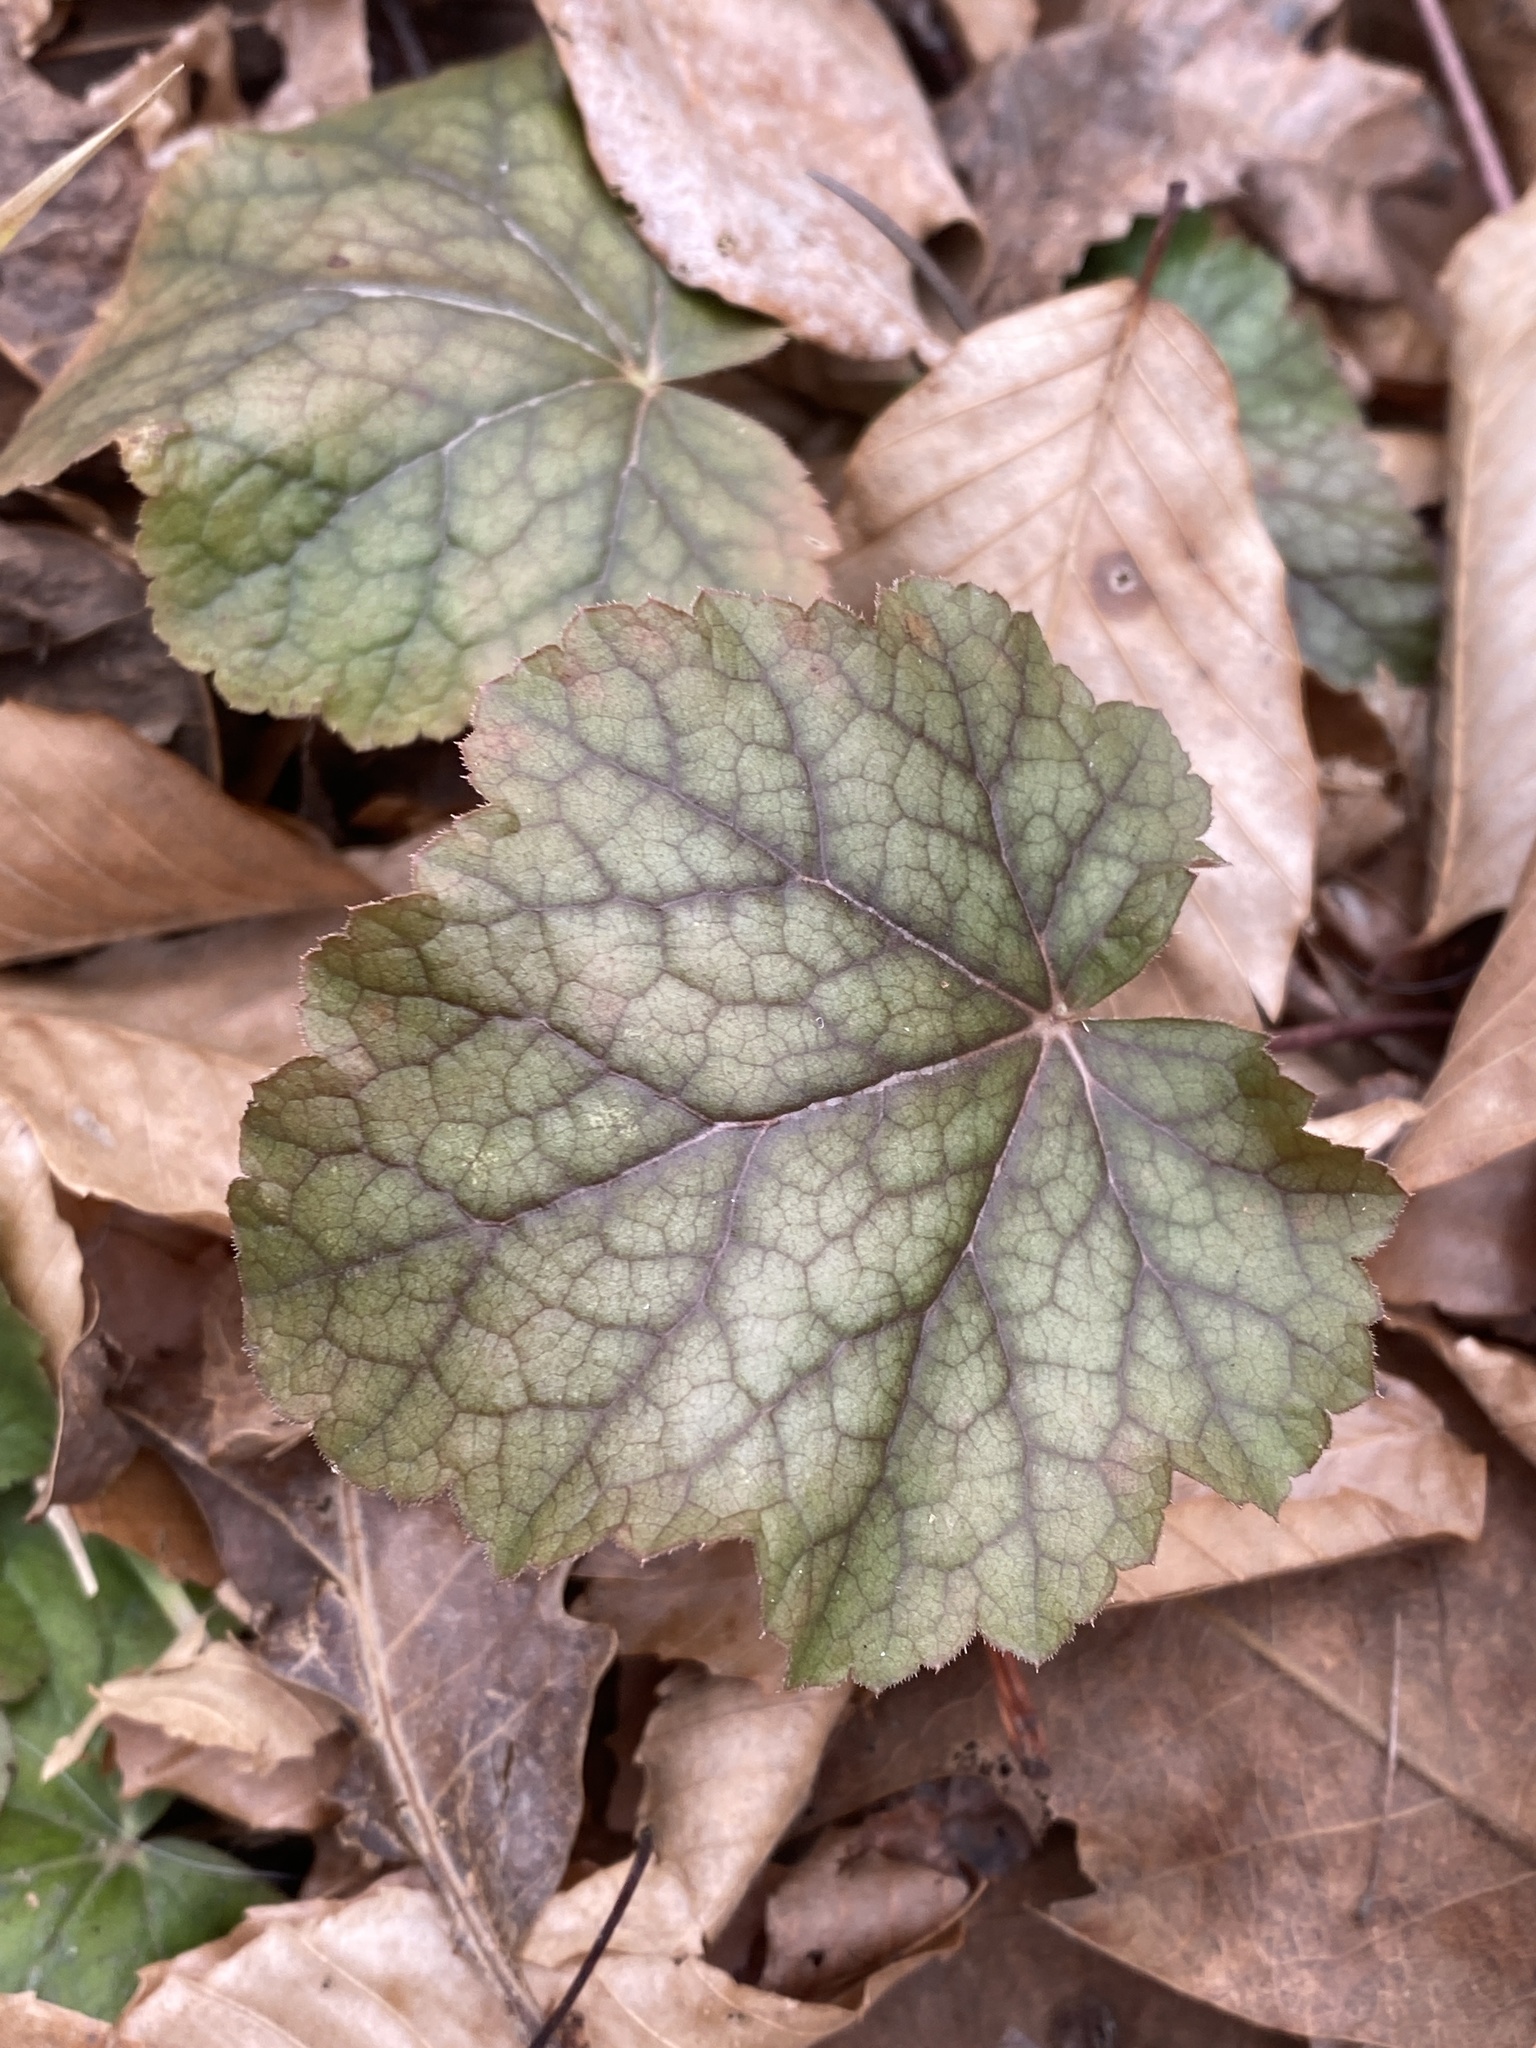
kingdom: Plantae
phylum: Tracheophyta
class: Magnoliopsida
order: Saxifragales
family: Saxifragaceae
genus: Heuchera
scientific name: Heuchera americana
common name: Alumroot
